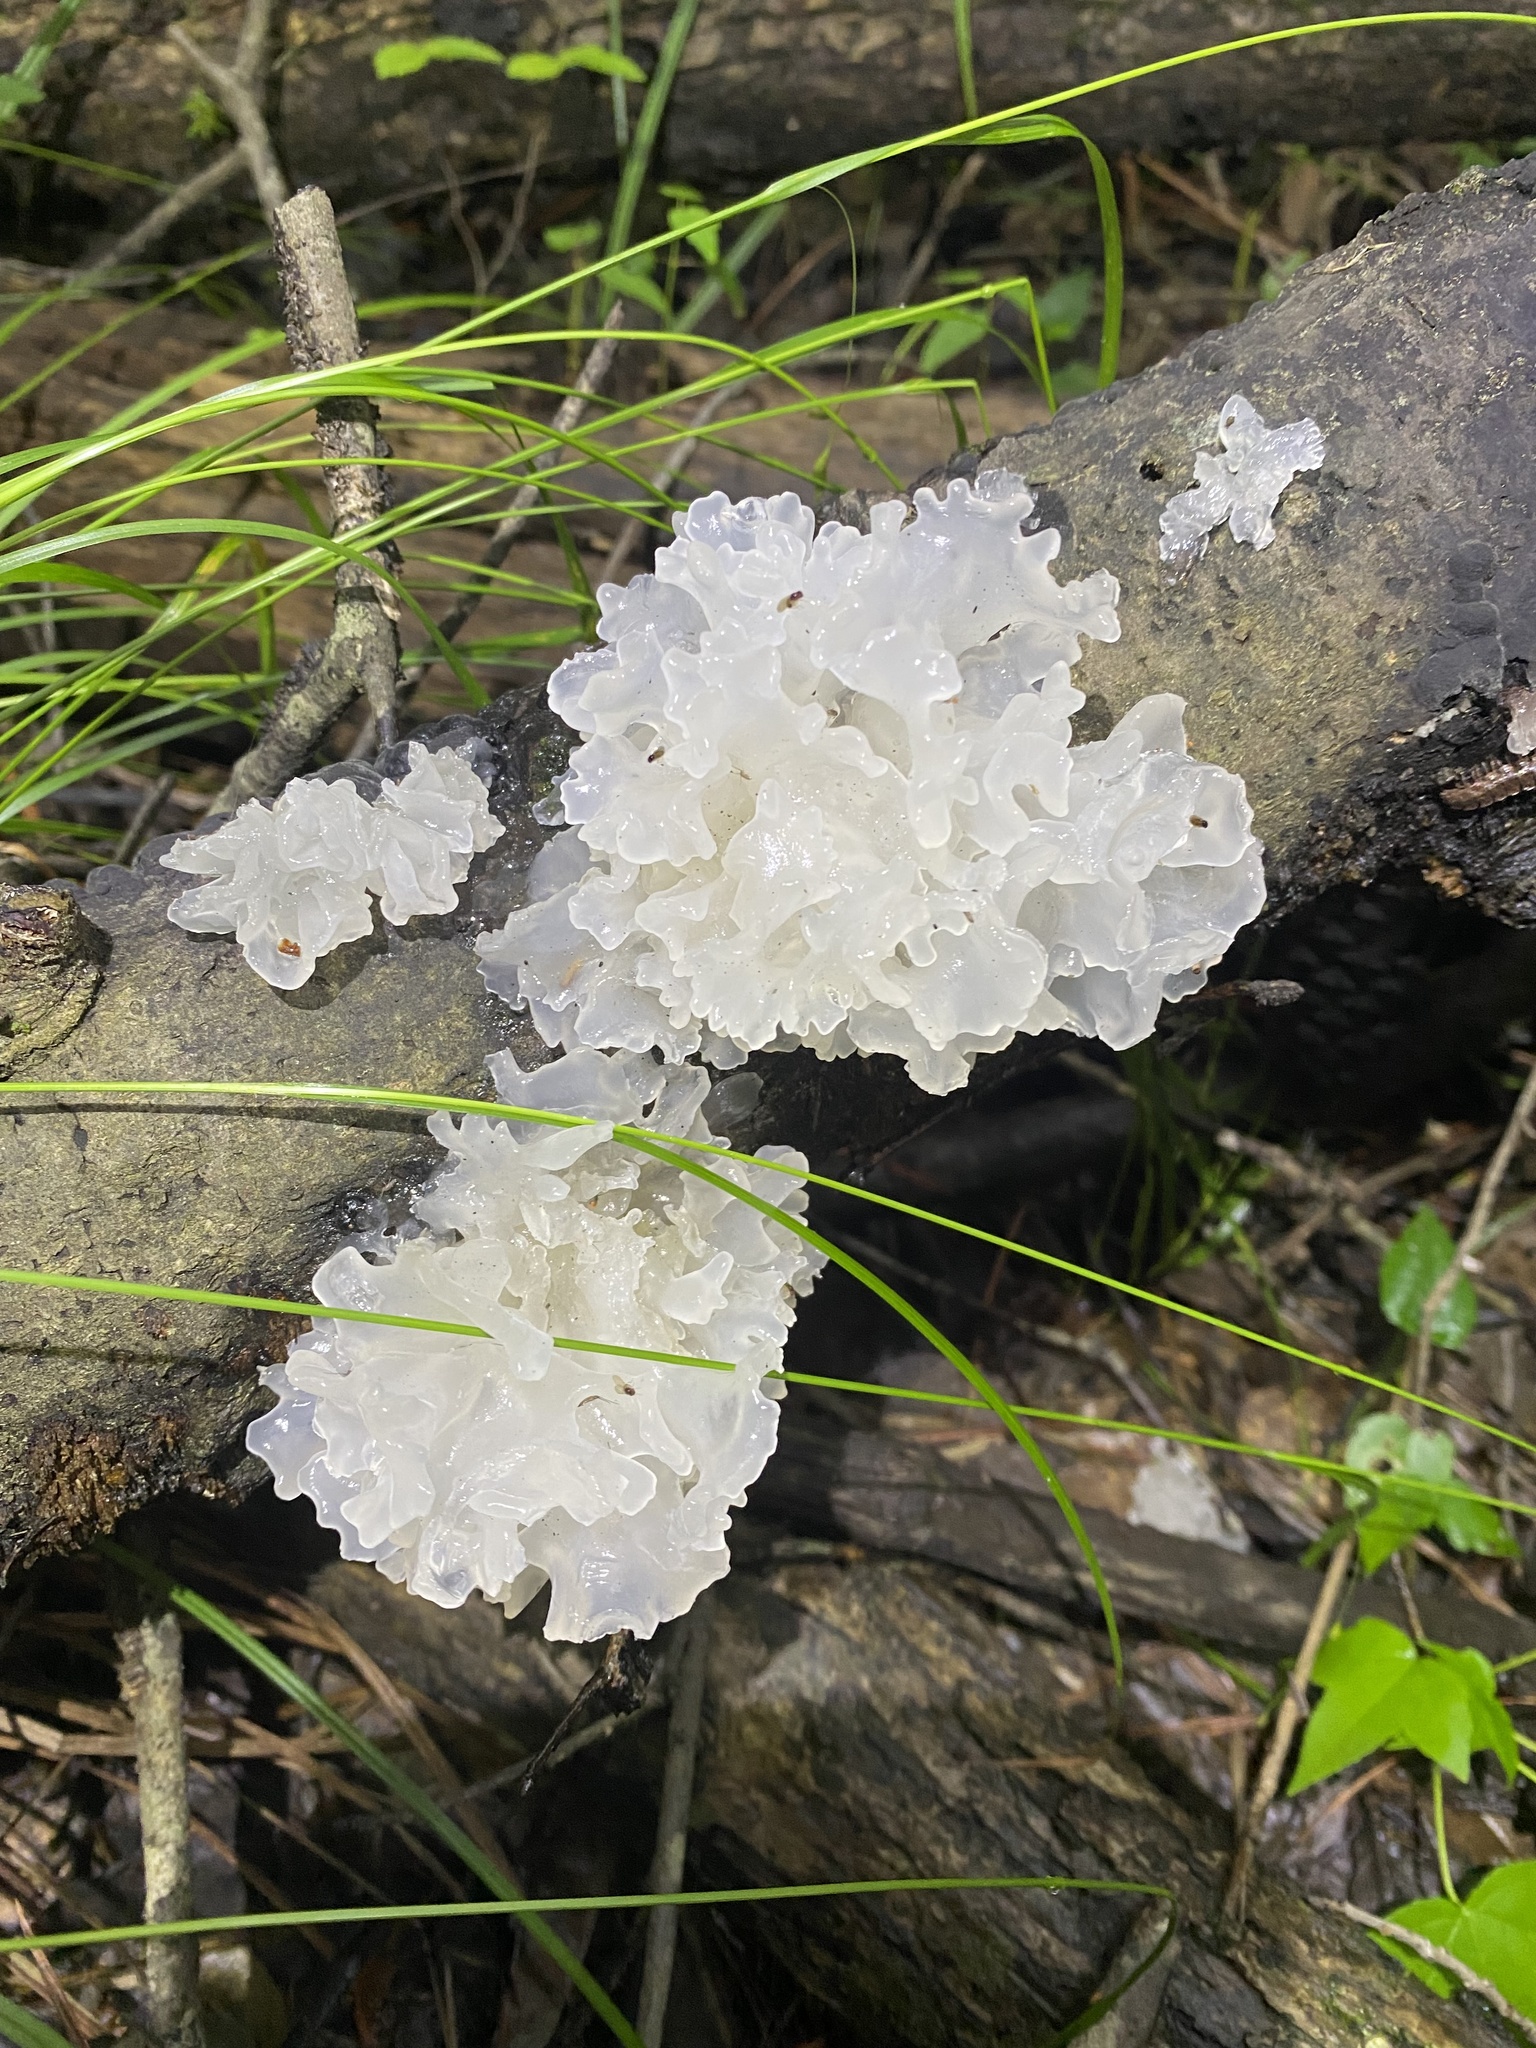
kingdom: Fungi
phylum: Basidiomycota
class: Tremellomycetes
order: Tremellales
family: Tremellaceae
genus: Tremella
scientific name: Tremella fuciformis
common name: Snow fungus
